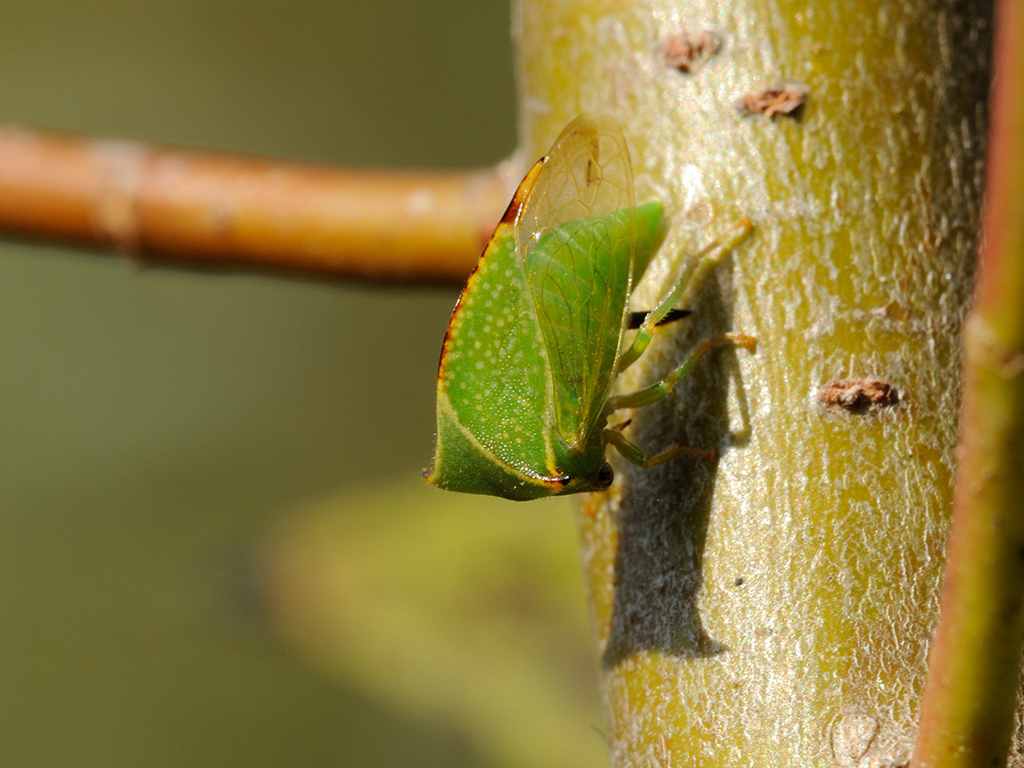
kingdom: Animalia
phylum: Arthropoda
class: Insecta
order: Hemiptera
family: Membracidae
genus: Stictocephala
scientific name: Stictocephala bisonia
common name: American buffalo treehopper
